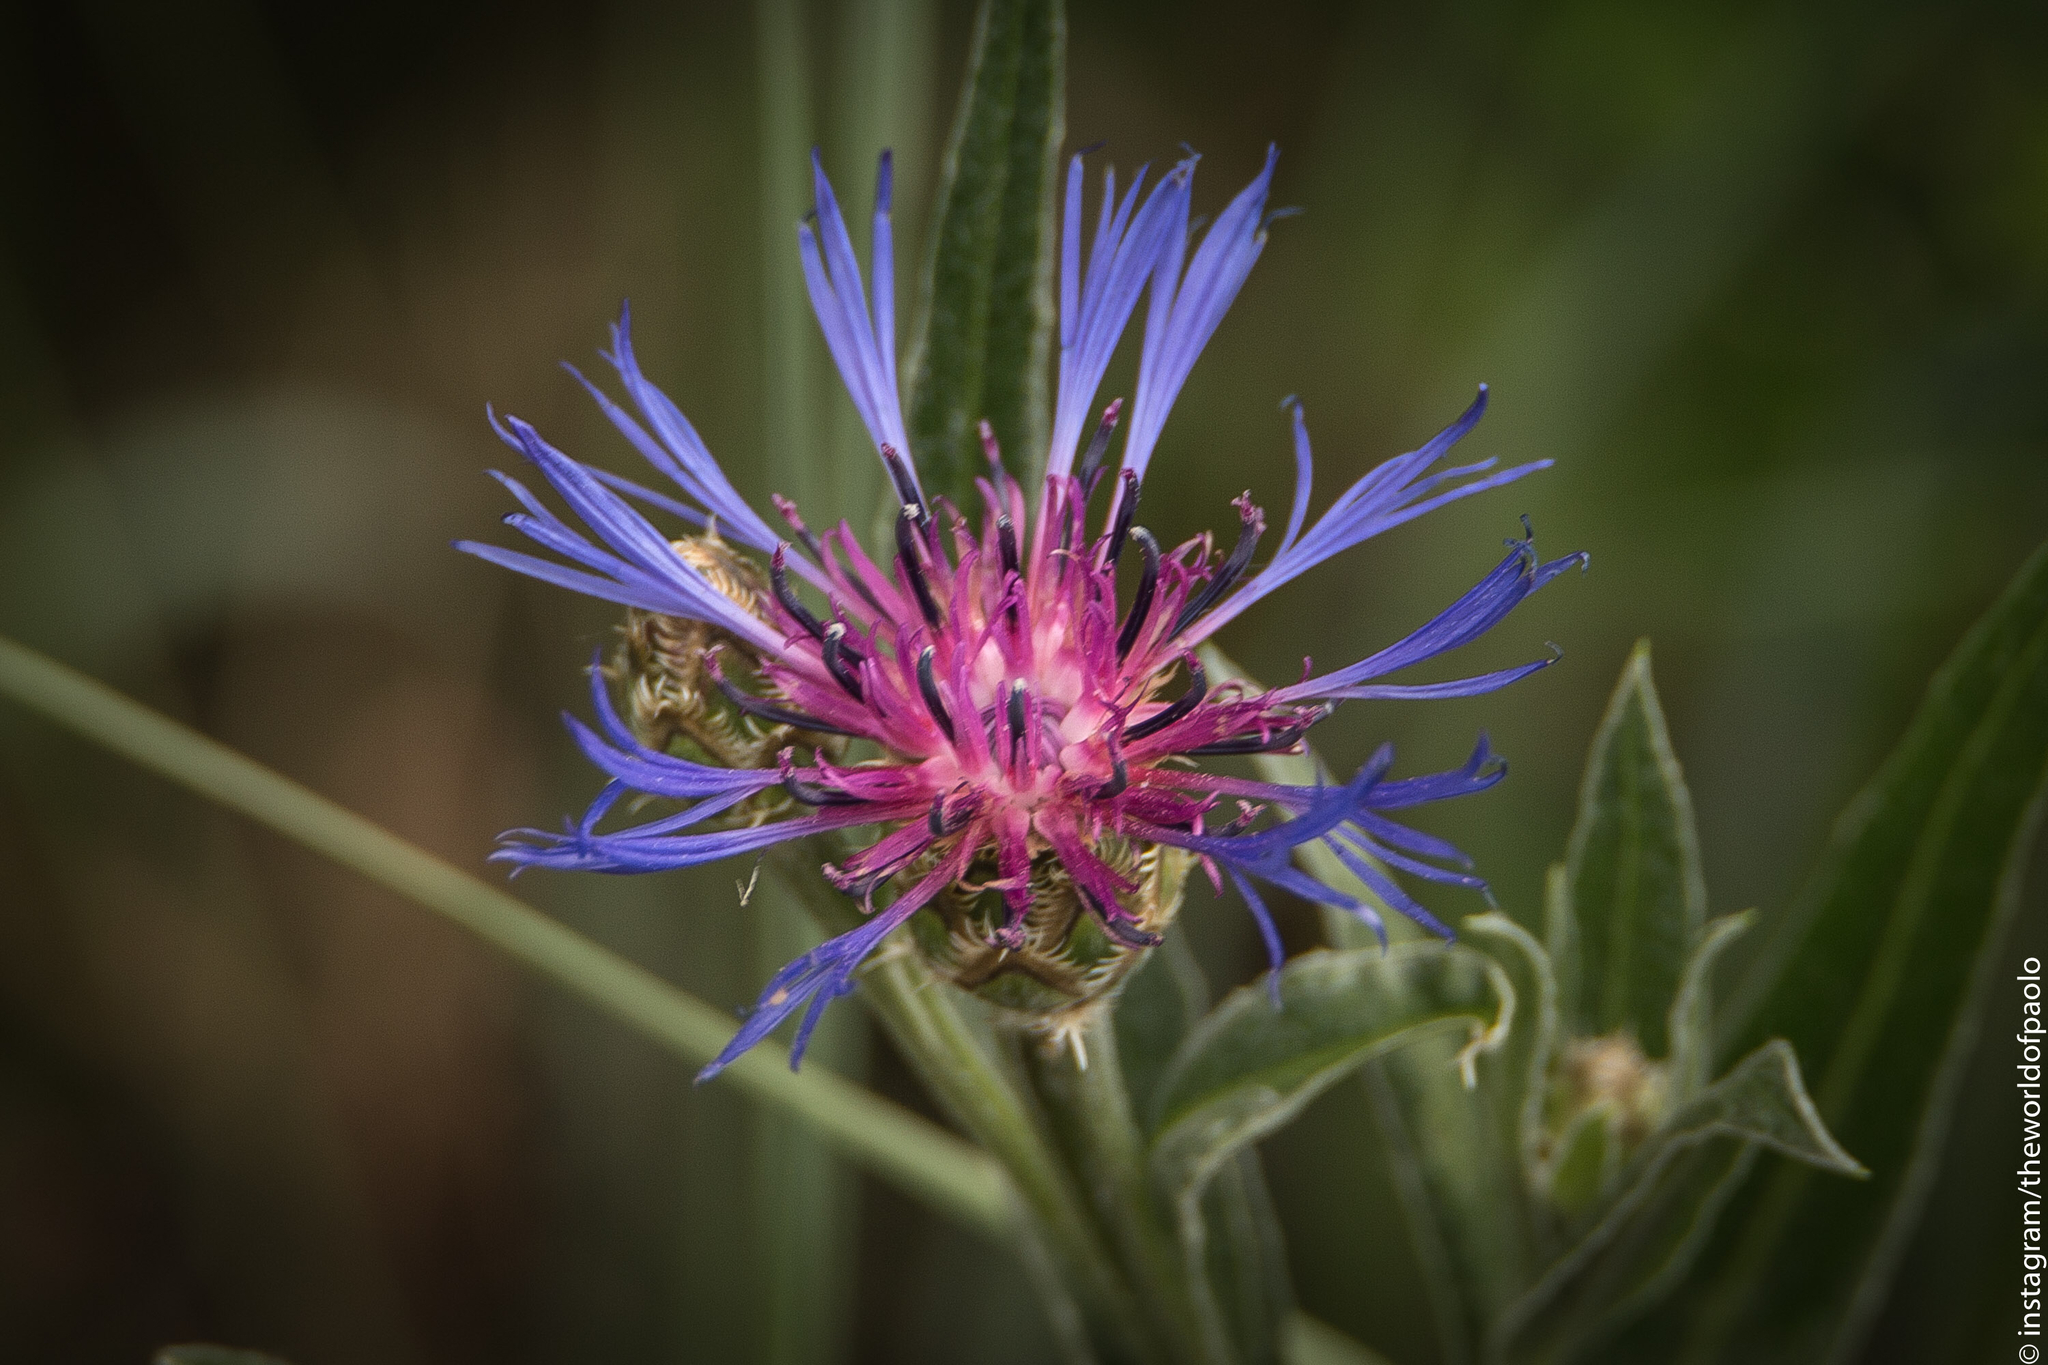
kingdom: Plantae
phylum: Tracheophyta
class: Magnoliopsida
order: Asterales
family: Asteraceae
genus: Centaurea
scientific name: Centaurea triumfettii
